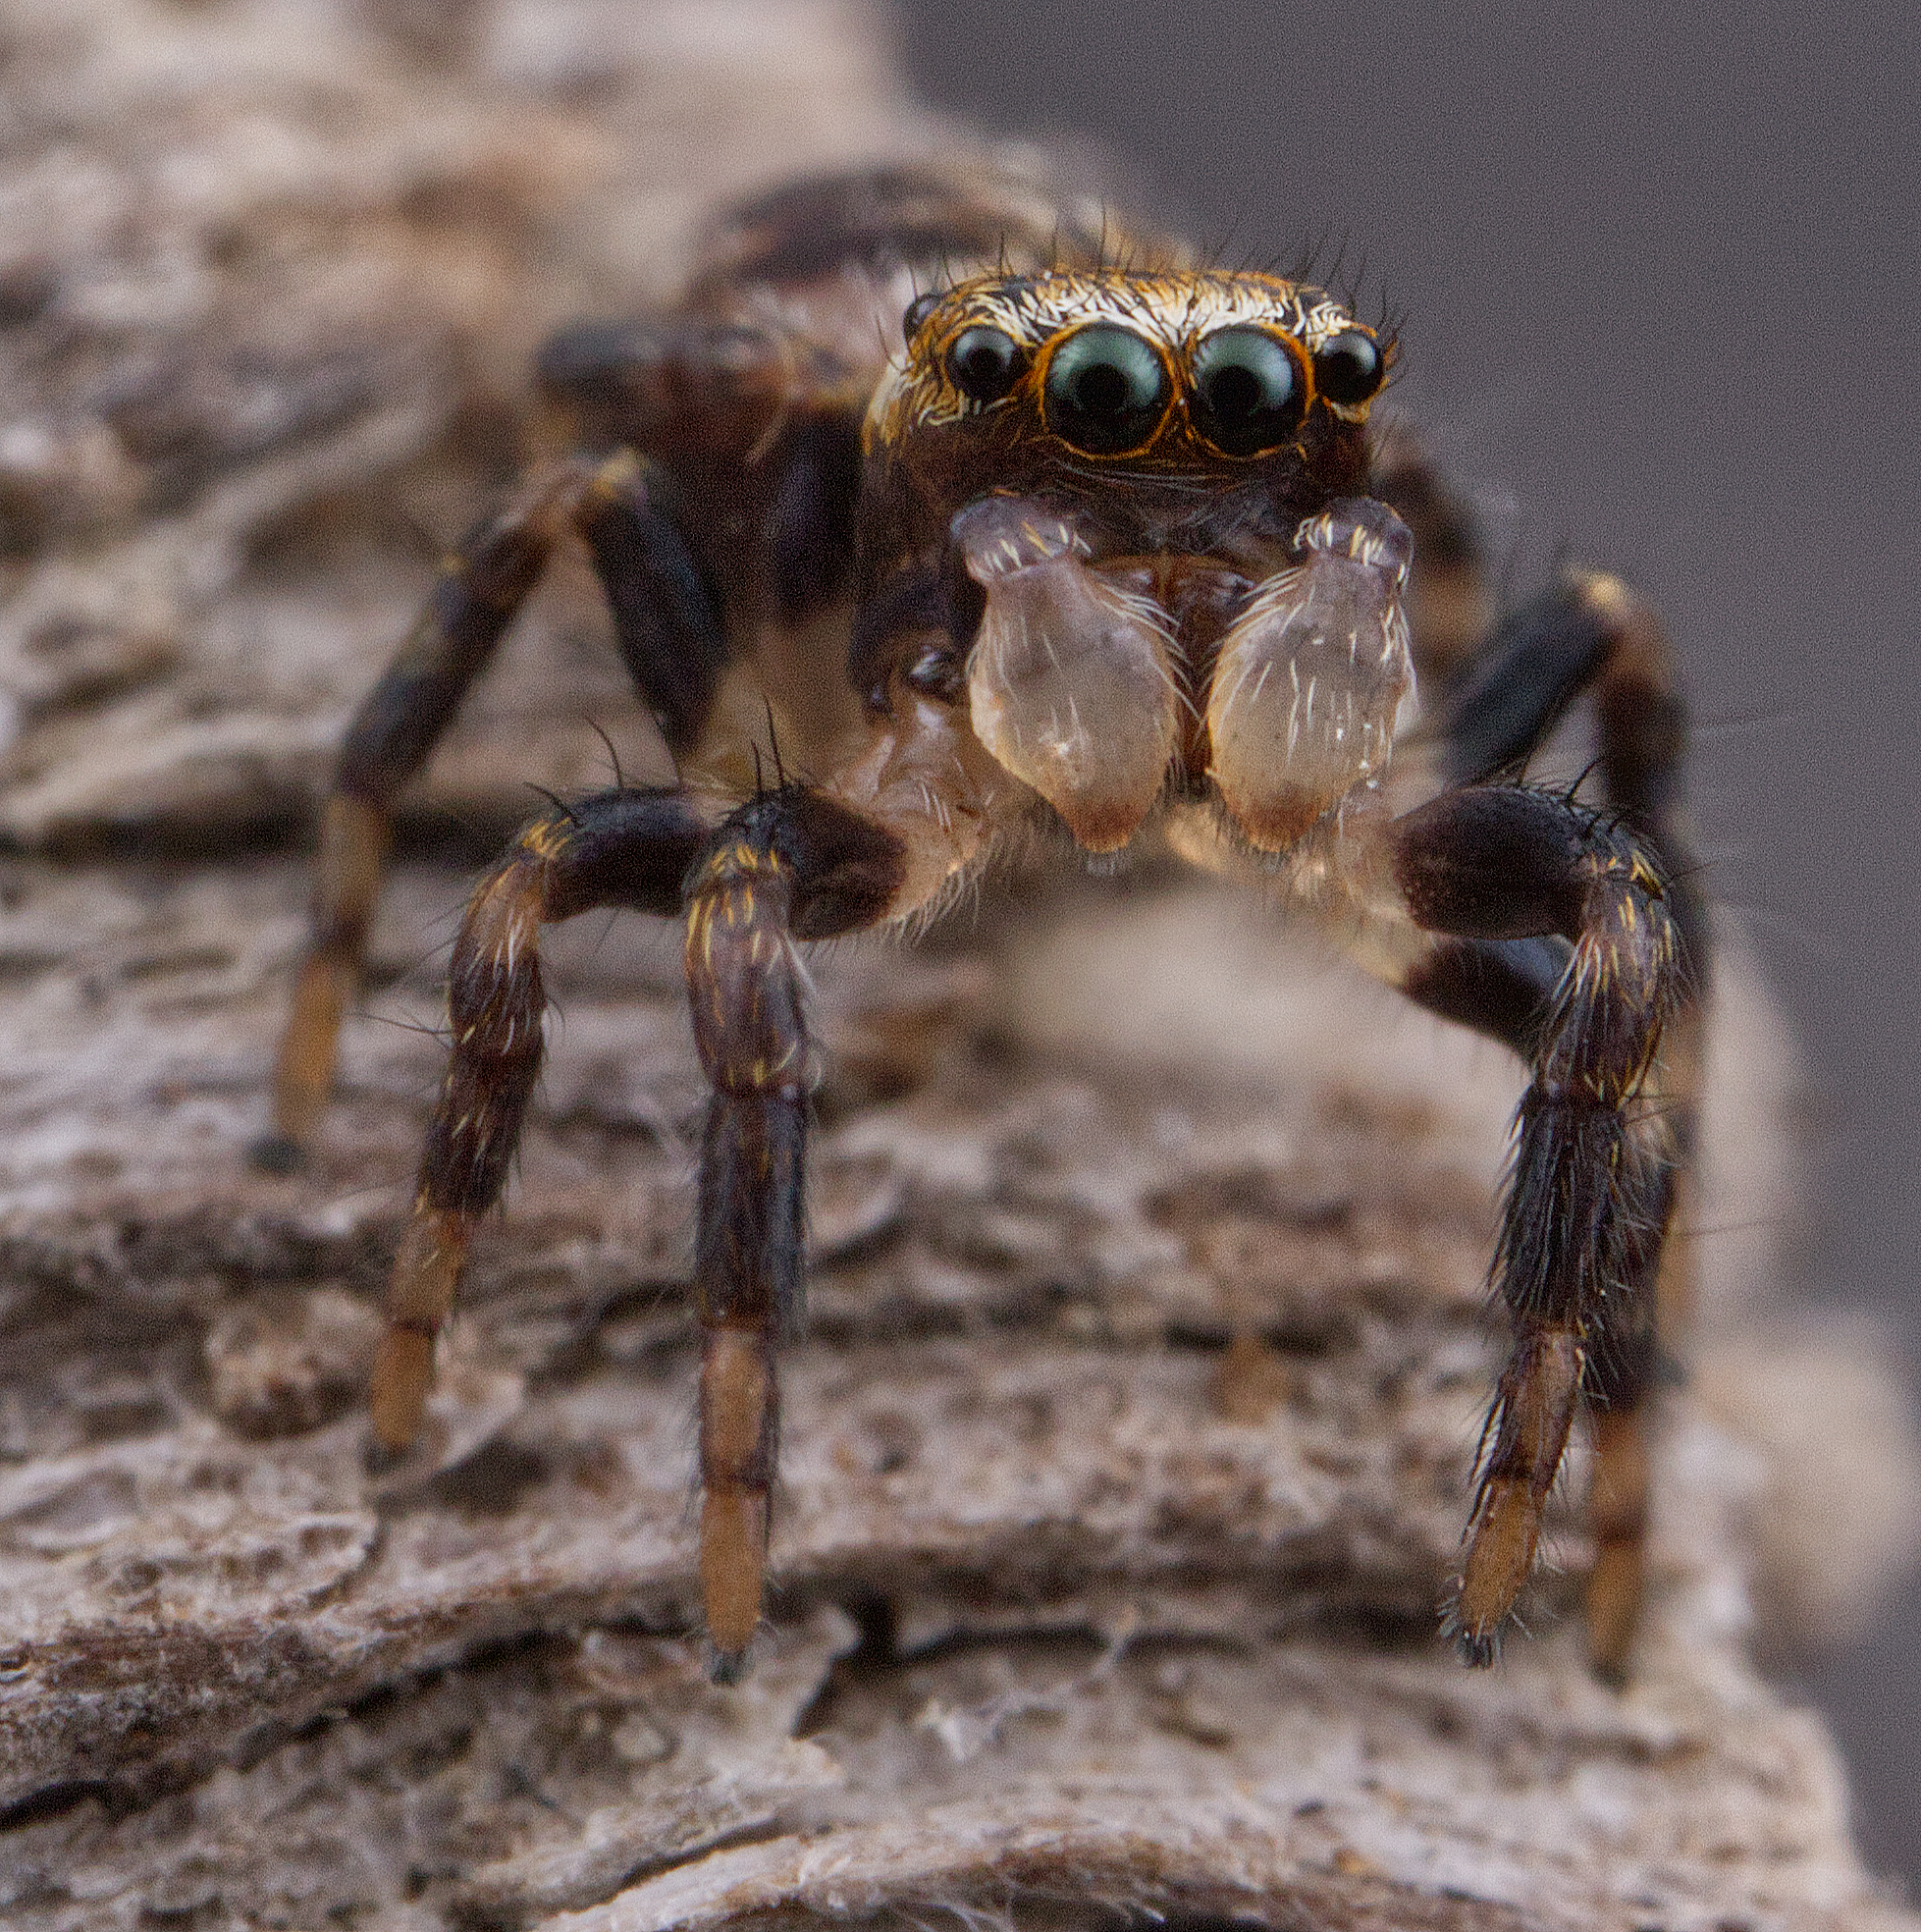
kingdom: Animalia
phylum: Arthropoda
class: Arachnida
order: Araneae
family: Salticidae
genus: Evarcha
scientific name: Evarcha hoyi
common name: Hoy's jumping spider
